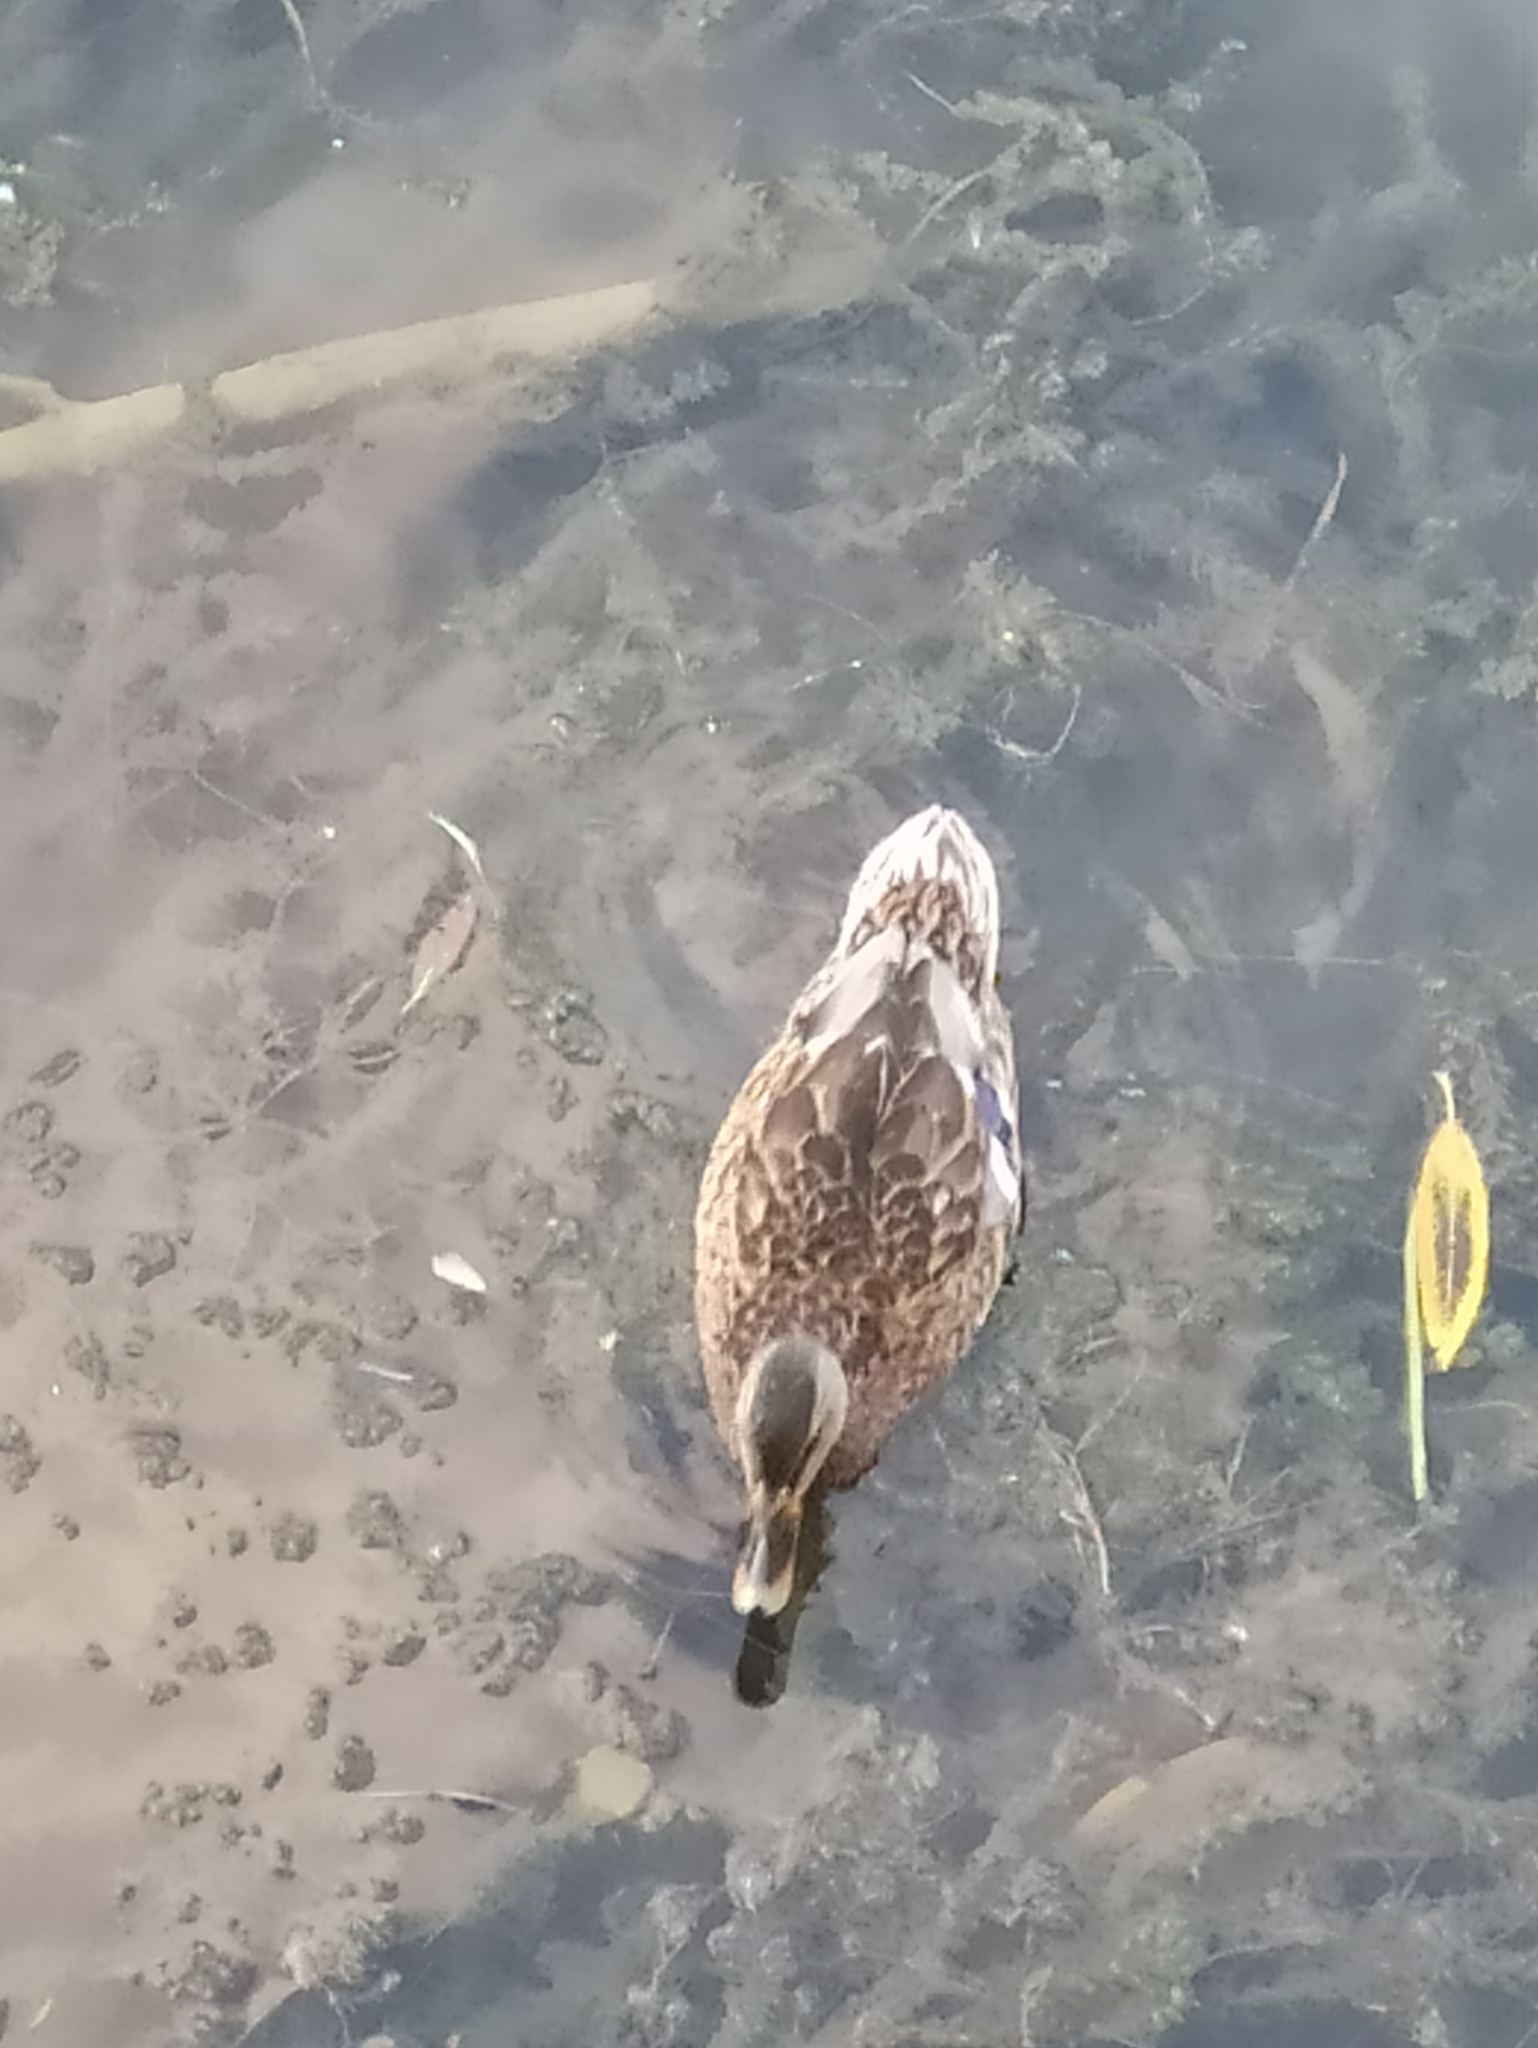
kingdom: Animalia
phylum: Chordata
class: Aves
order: Anseriformes
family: Anatidae
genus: Anas
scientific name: Anas platyrhynchos
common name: Mallard
